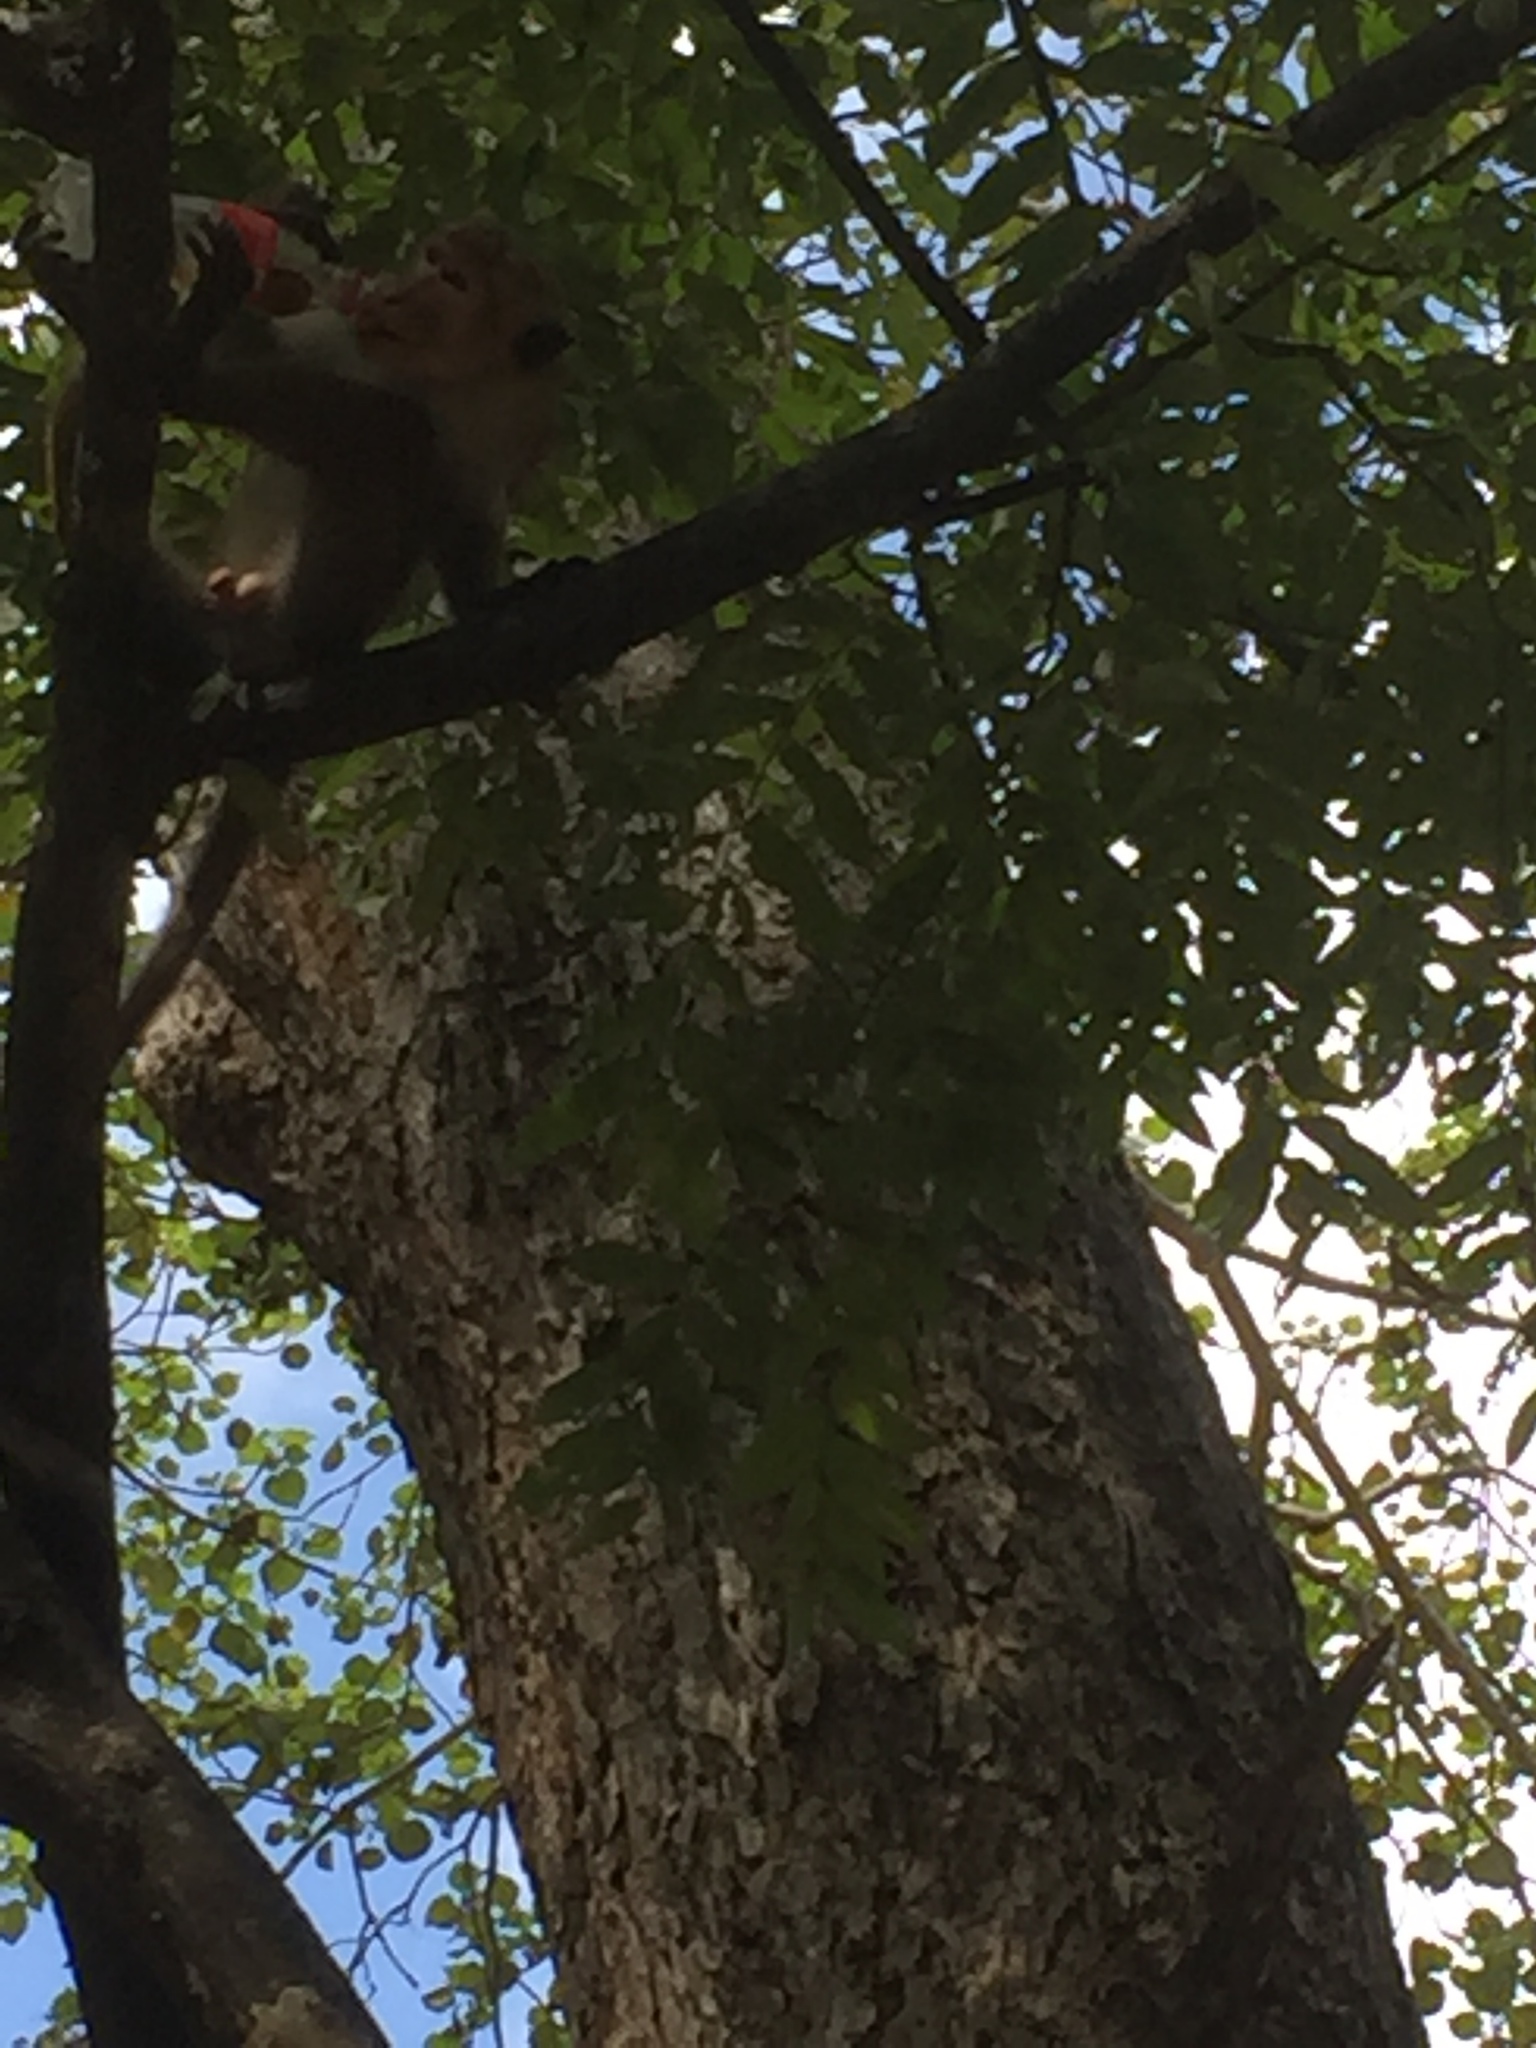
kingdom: Animalia
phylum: Chordata
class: Mammalia
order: Primates
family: Cercopithecidae
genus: Macaca
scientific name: Macaca sinica
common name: Toque macaque
